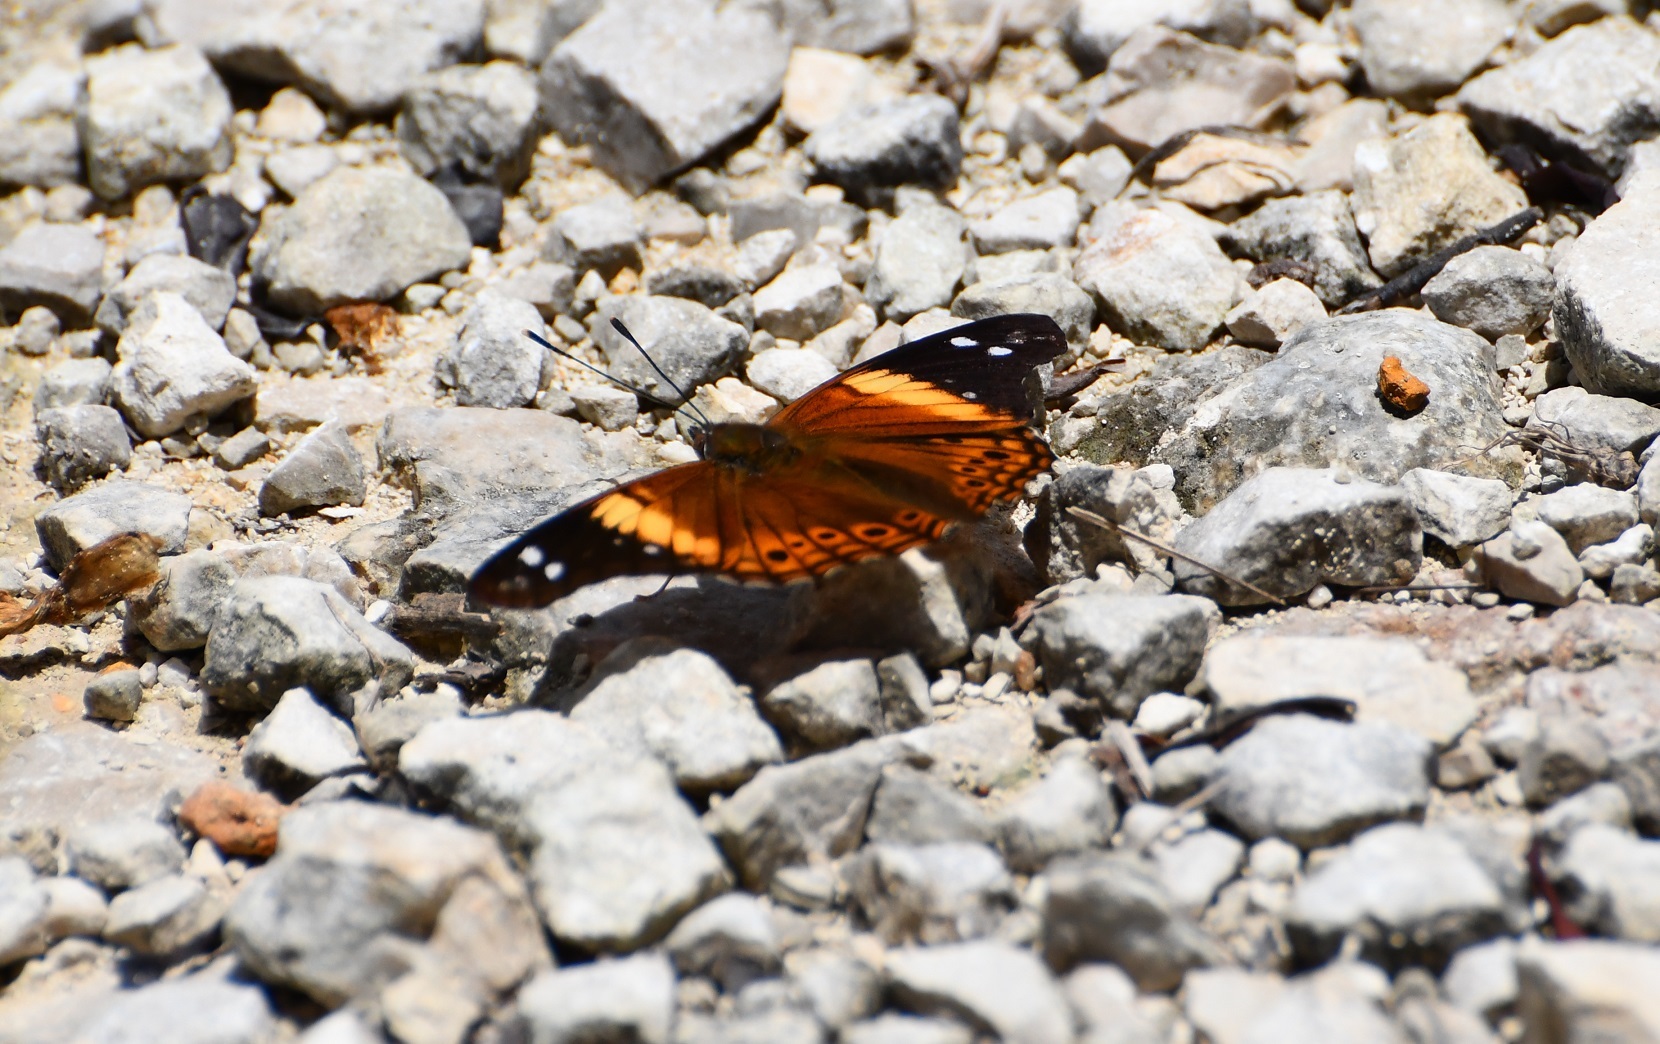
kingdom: Animalia
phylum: Arthropoda
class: Insecta
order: Lepidoptera
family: Nymphalidae
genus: Asterocampa
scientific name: Asterocampa idyja
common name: Dusky emperor
